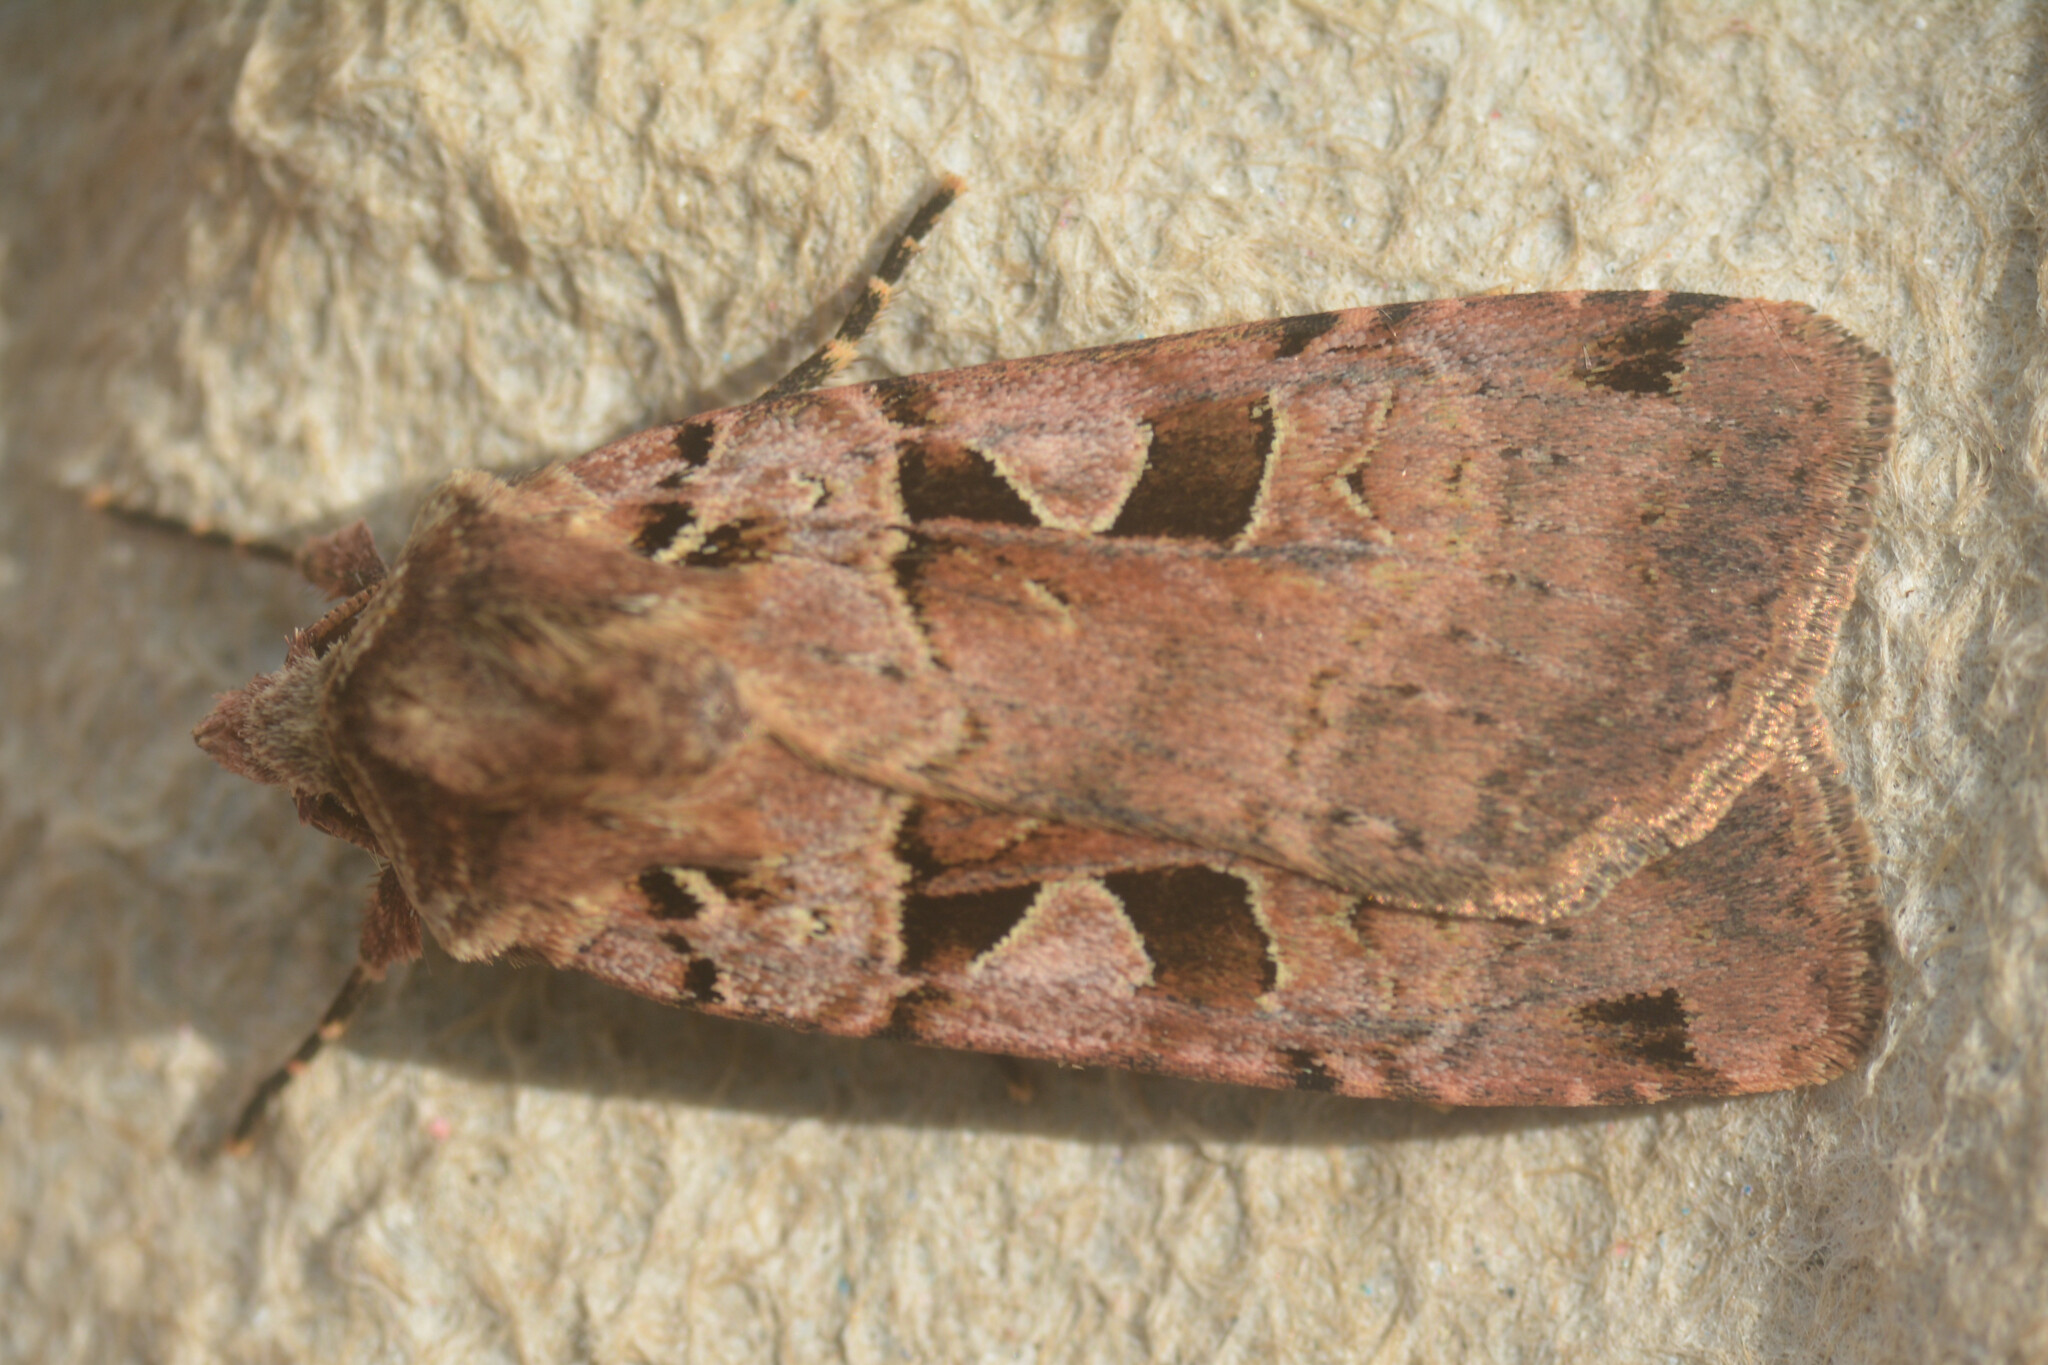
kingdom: Animalia
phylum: Arthropoda
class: Insecta
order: Lepidoptera
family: Noctuidae
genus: Xestia
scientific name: Xestia triangulum
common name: Double square-spot
